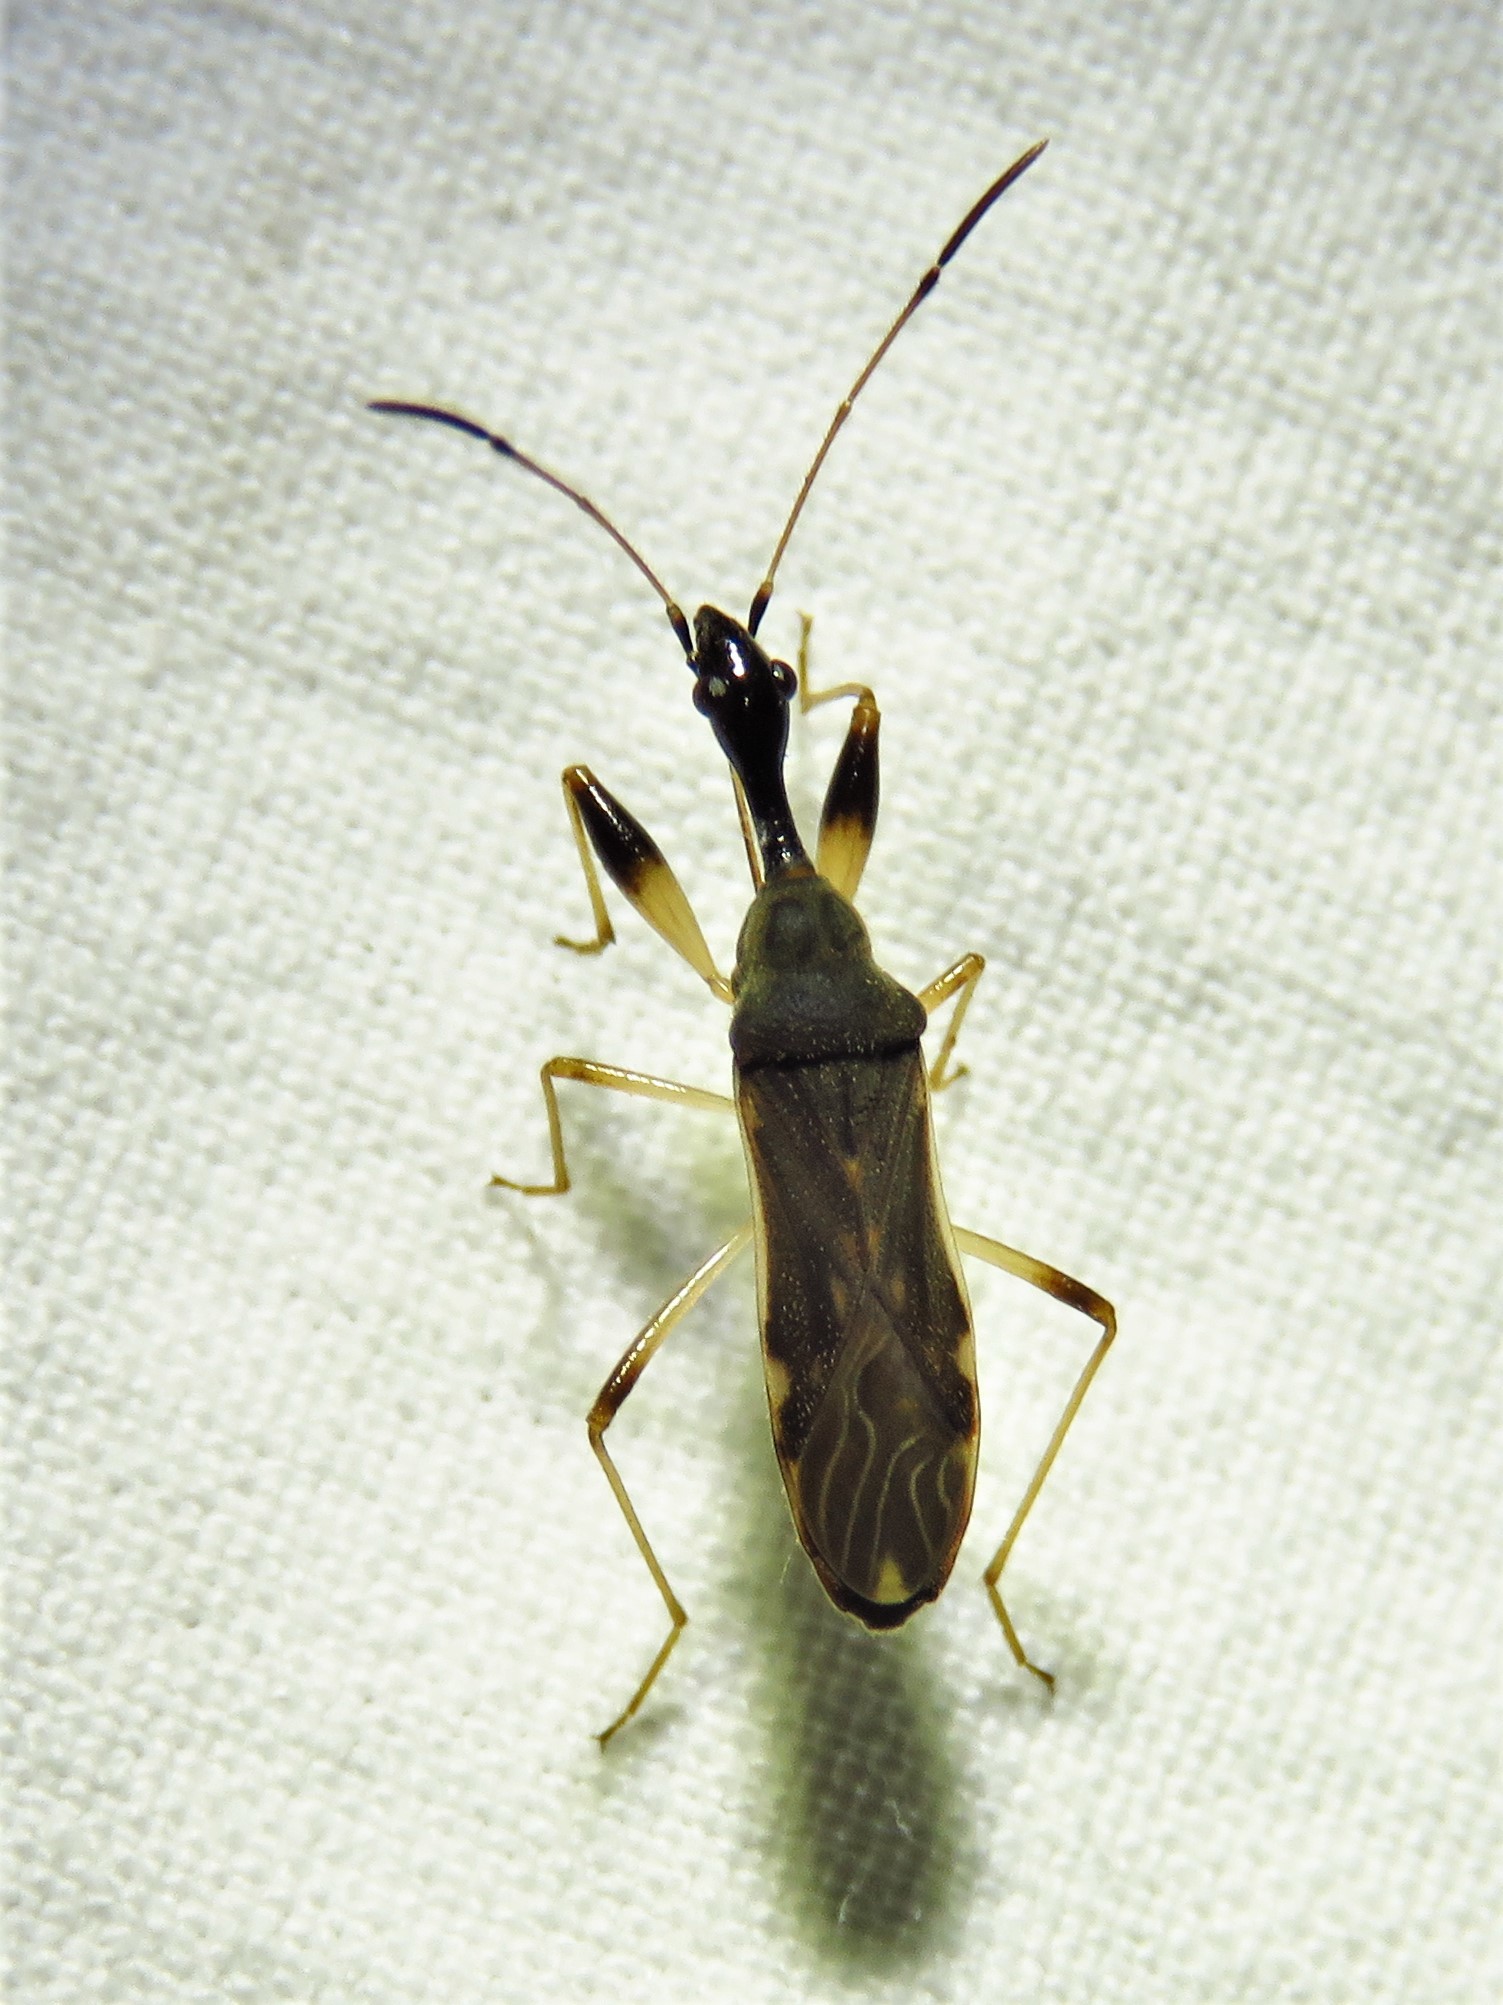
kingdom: Animalia
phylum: Arthropoda
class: Insecta
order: Hemiptera
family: Rhyparochromidae
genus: Myodocha
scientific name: Myodocha serripes
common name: Long-necked seed bug
